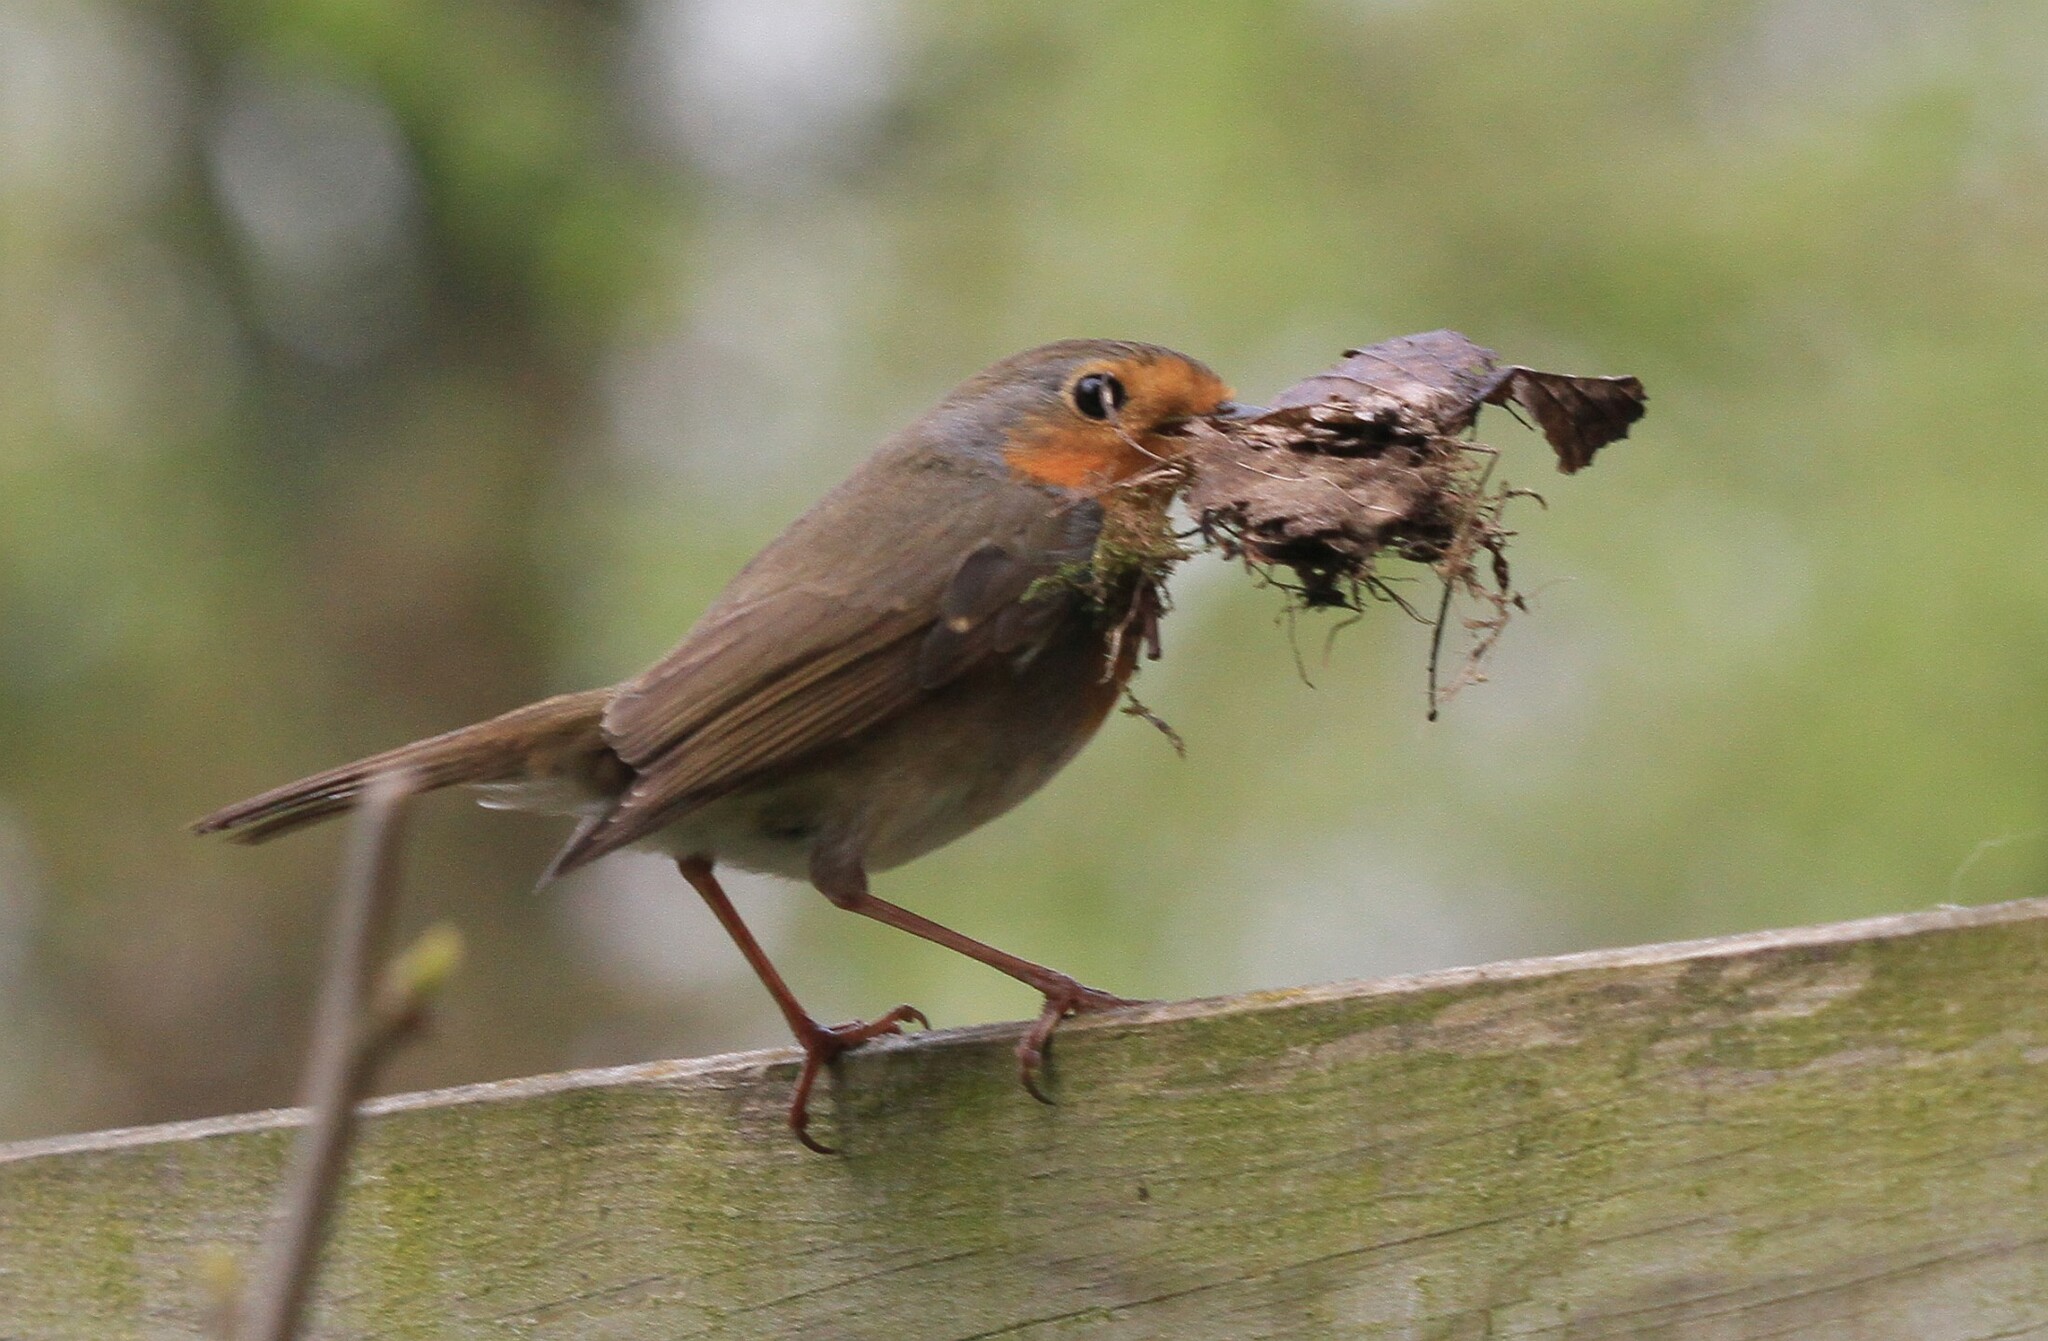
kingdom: Animalia
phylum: Chordata
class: Aves
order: Passeriformes
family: Muscicapidae
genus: Erithacus
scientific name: Erithacus rubecula
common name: European robin
